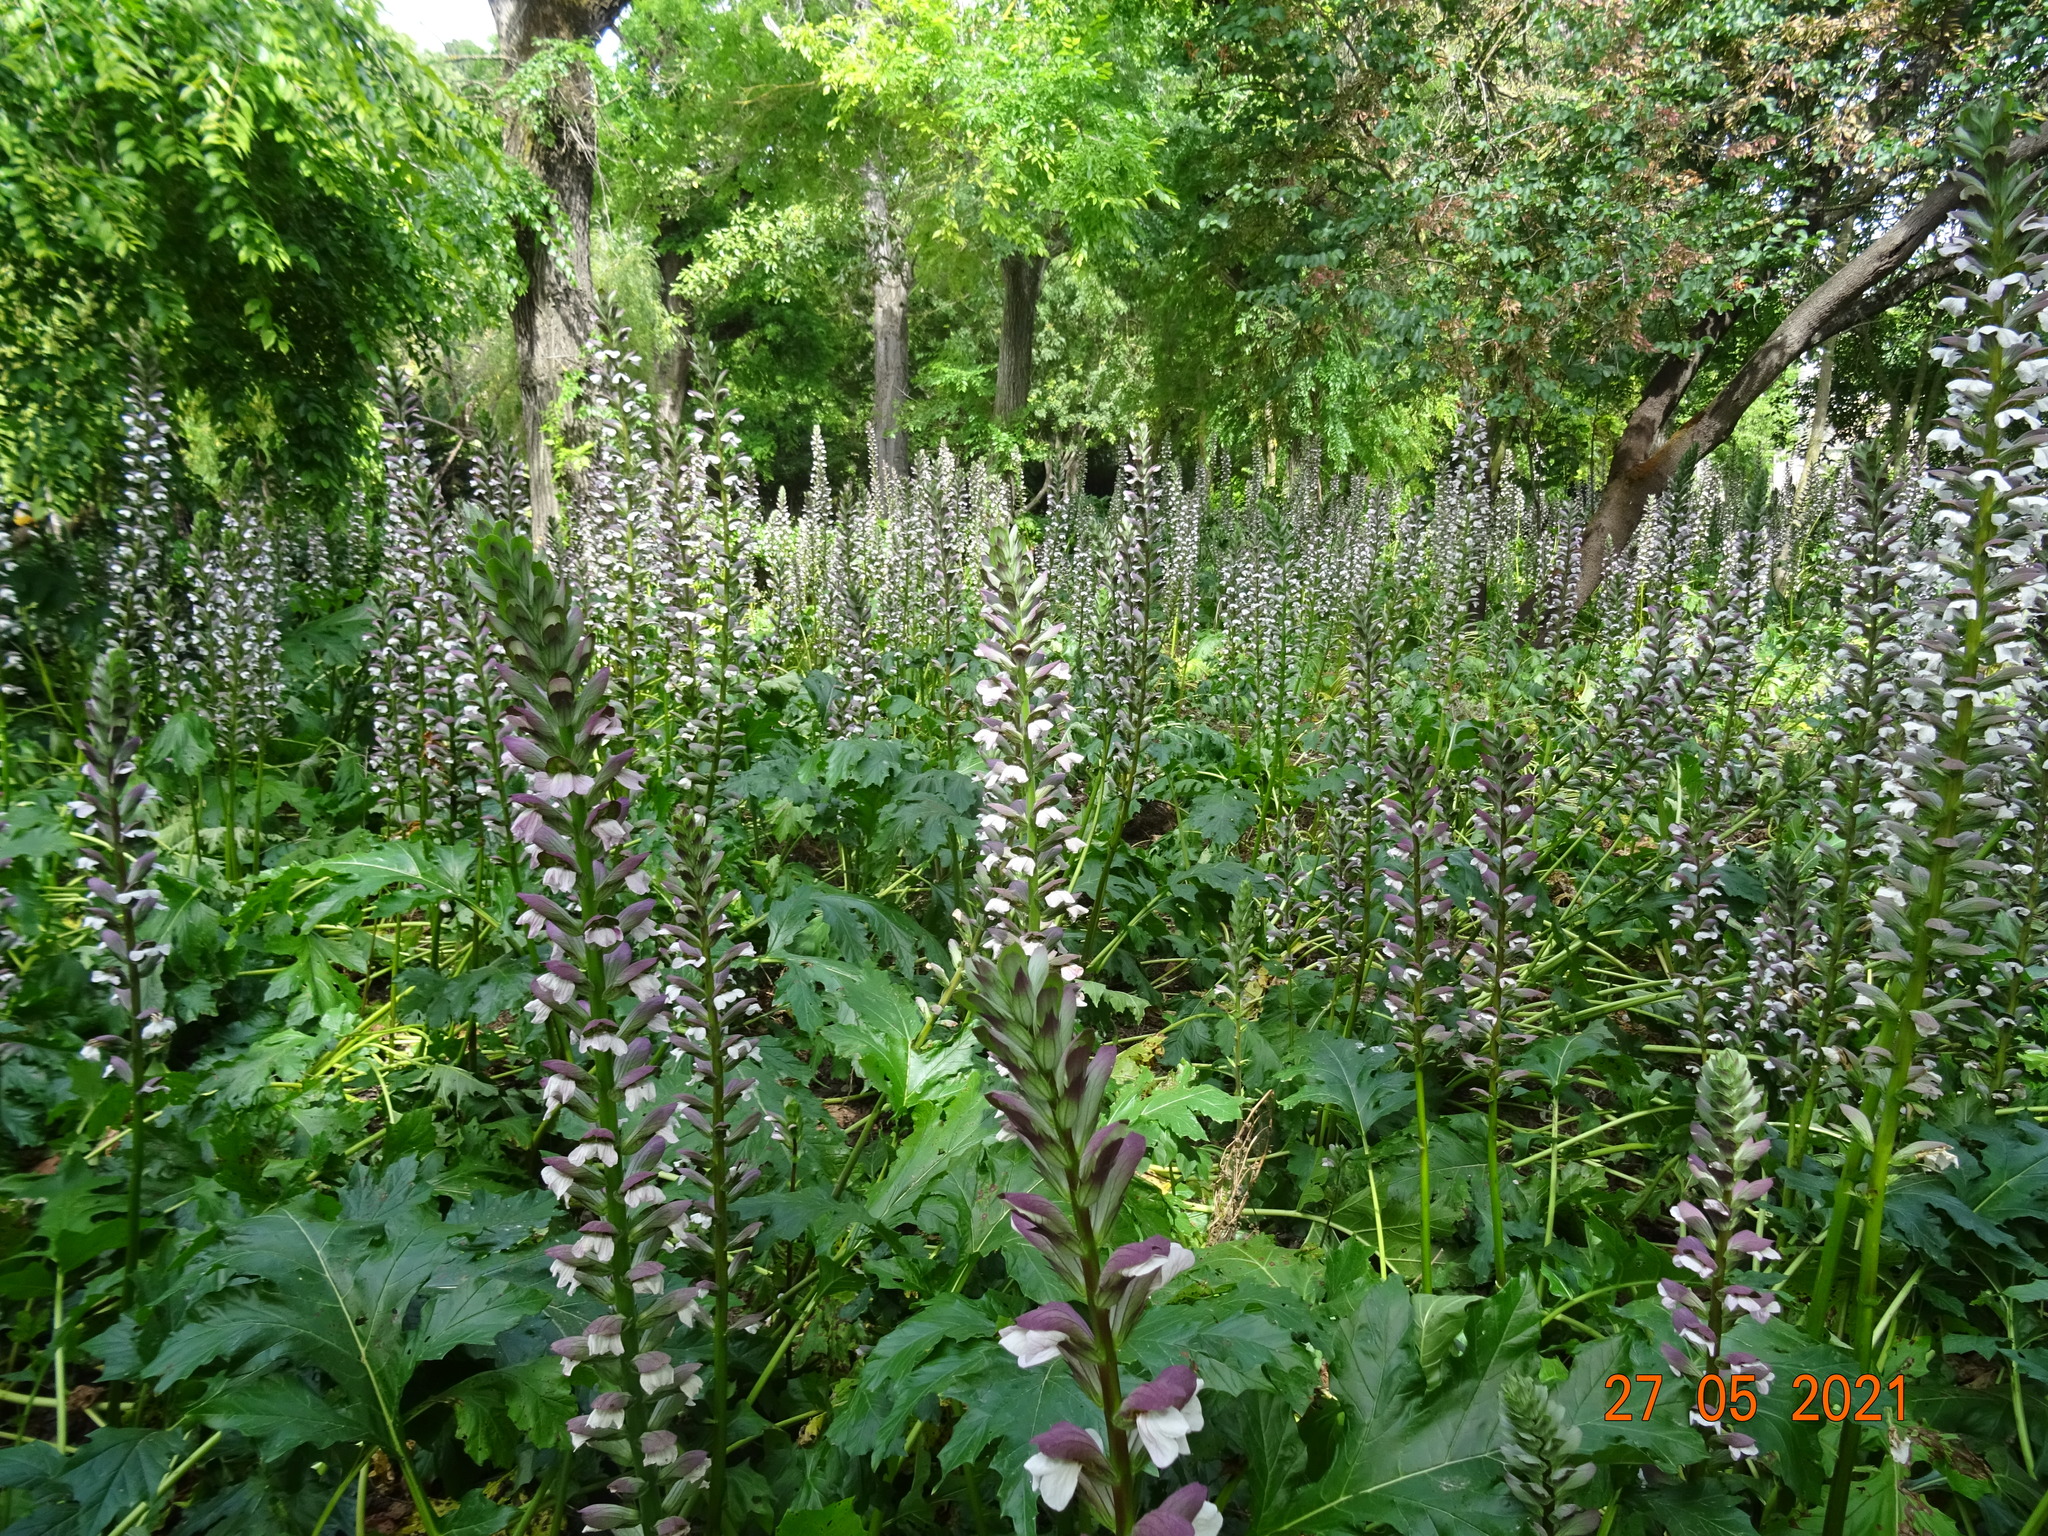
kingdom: Plantae
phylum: Tracheophyta
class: Magnoliopsida
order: Lamiales
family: Acanthaceae
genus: Acanthus
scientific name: Acanthus mollis
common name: Bear's-breech
